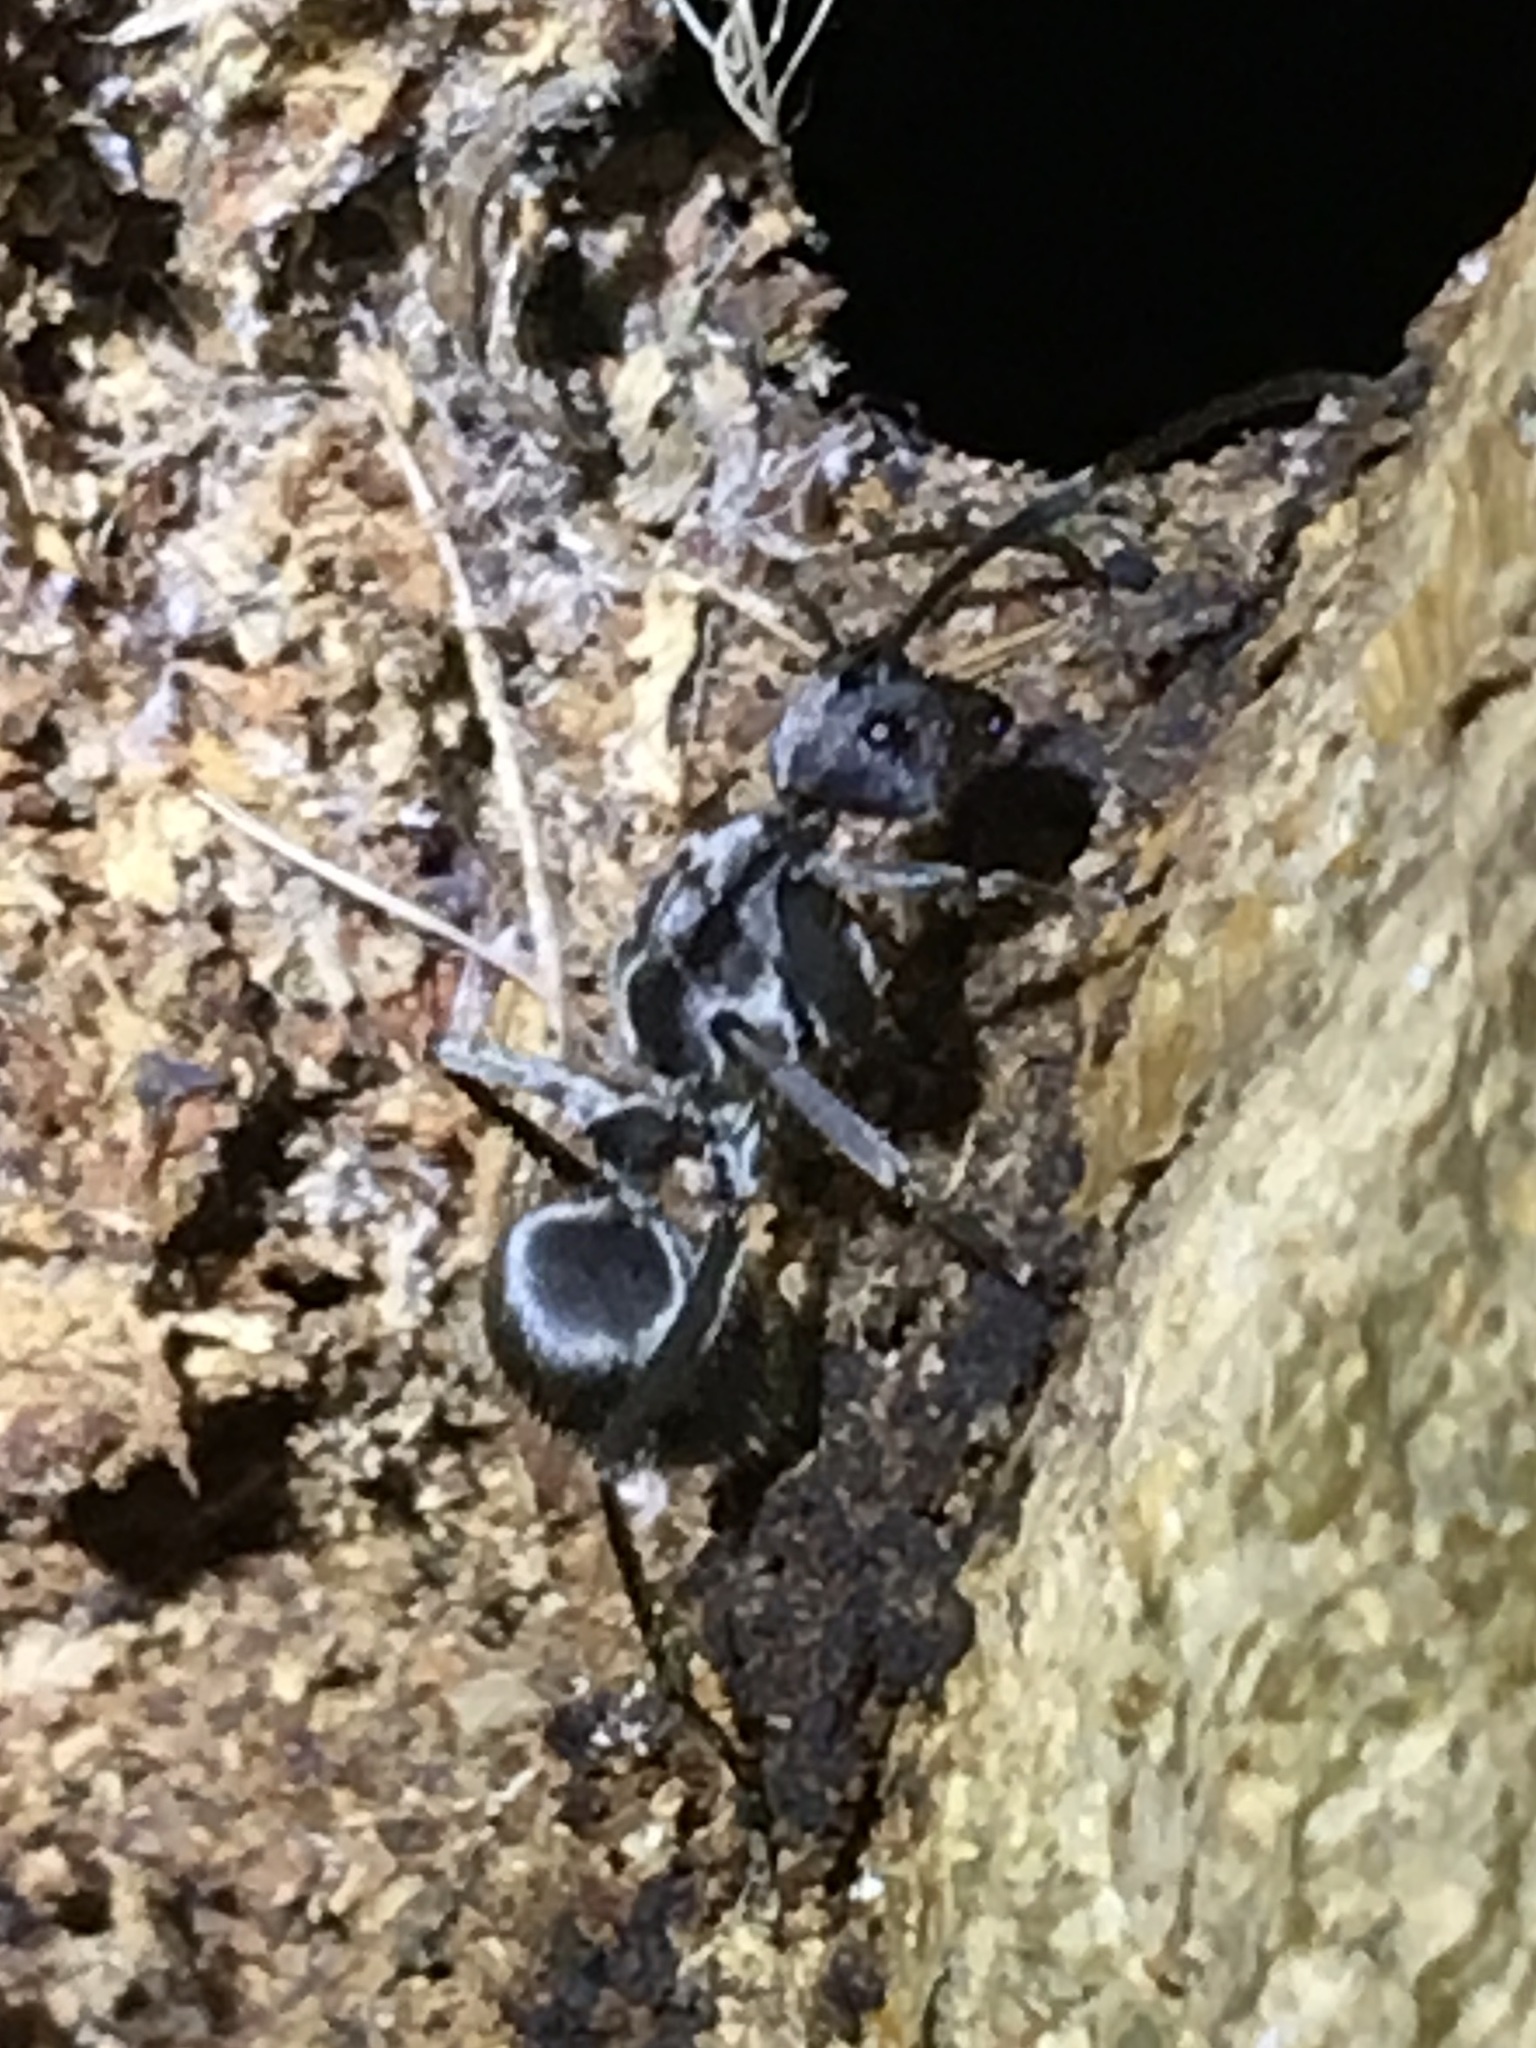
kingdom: Animalia
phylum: Arthropoda
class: Insecta
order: Hymenoptera
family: Formicidae
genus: Polyrhachis
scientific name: Polyrhachis schistacea
